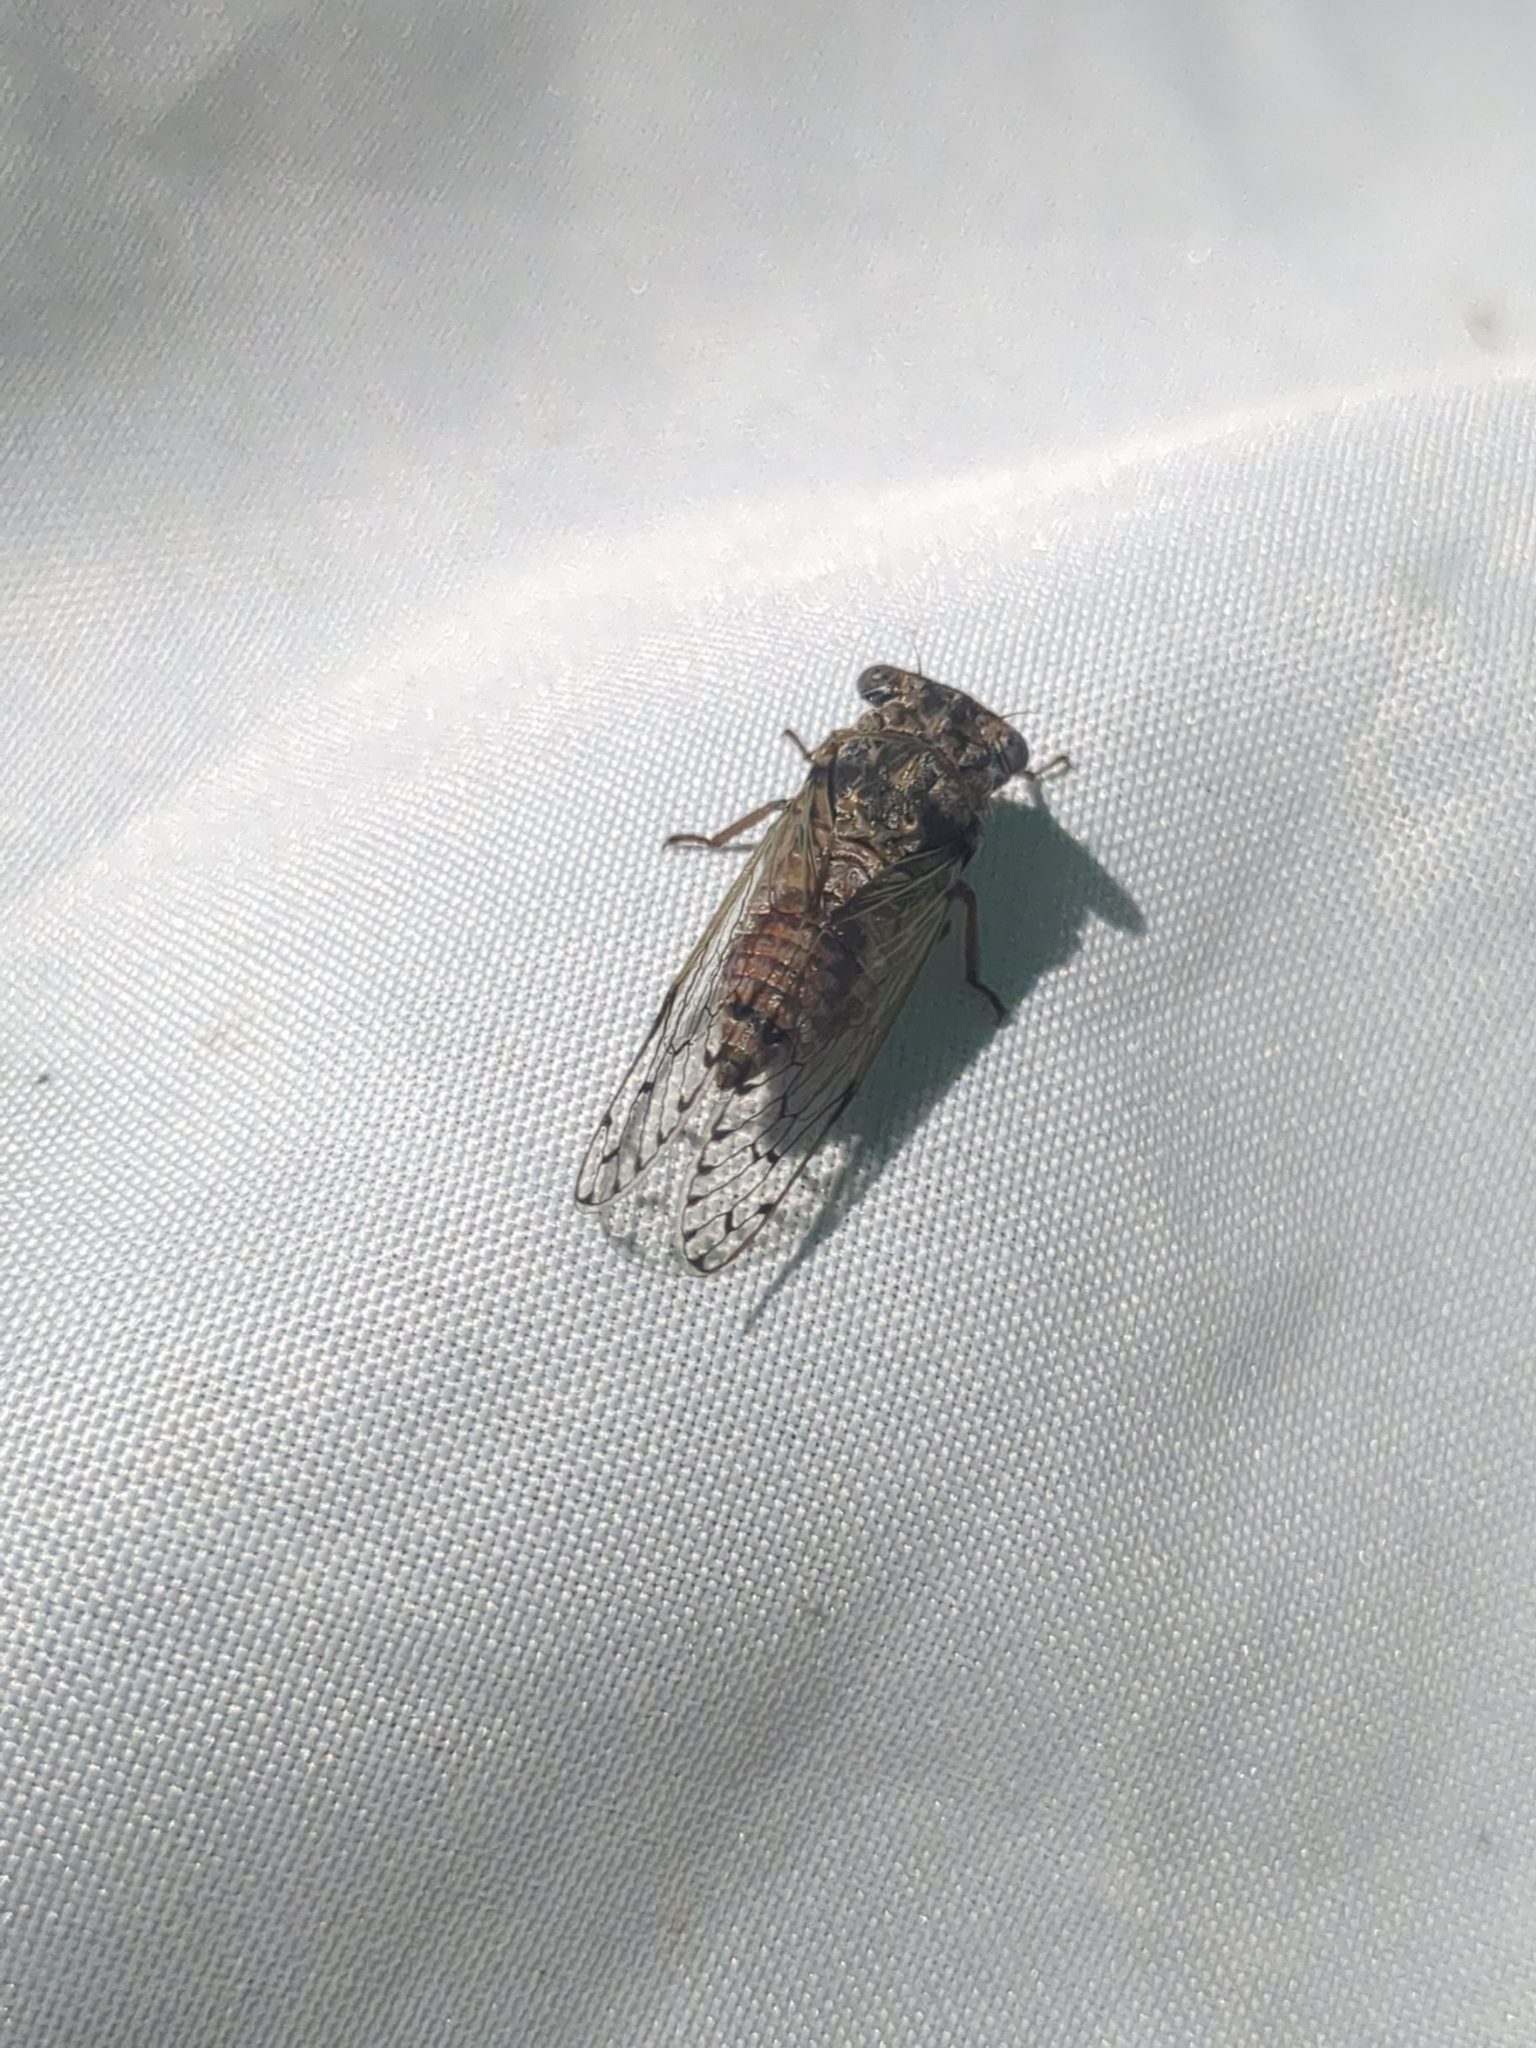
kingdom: Animalia
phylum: Arthropoda
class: Insecta
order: Hemiptera
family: Cicadidae
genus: Pacarina
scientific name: Pacarina puella
